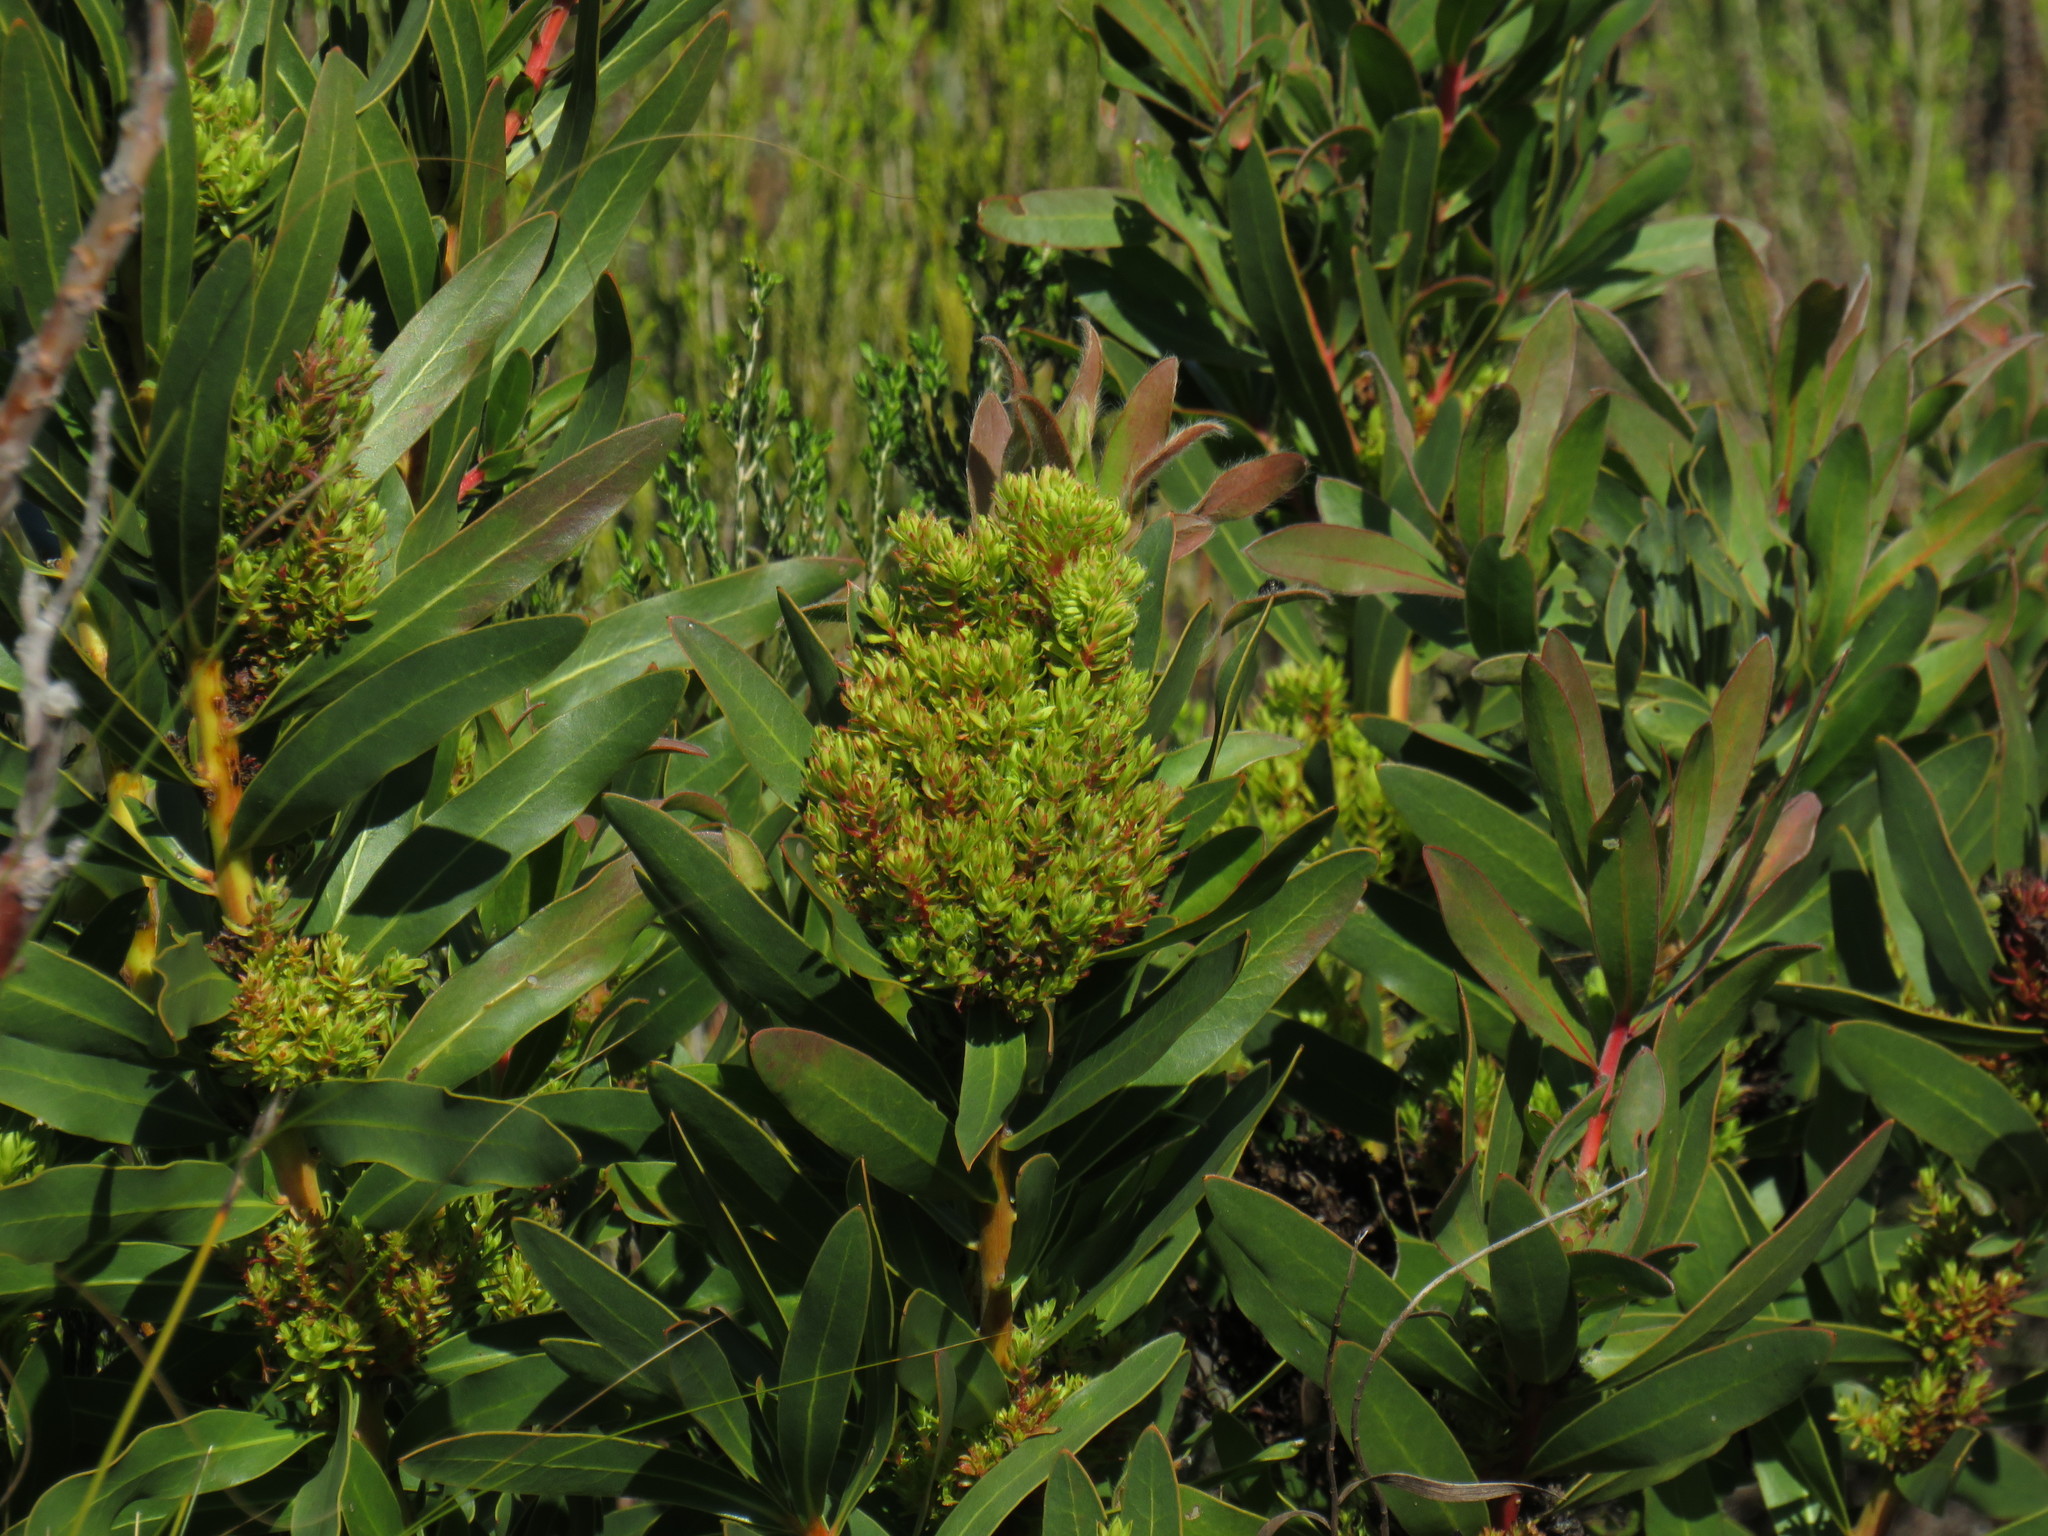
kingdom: Bacteria
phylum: Firmicutes
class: Bacilli
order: Acholeplasmatales
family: Acholeplasmataceae
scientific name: Acholeplasmataceae
